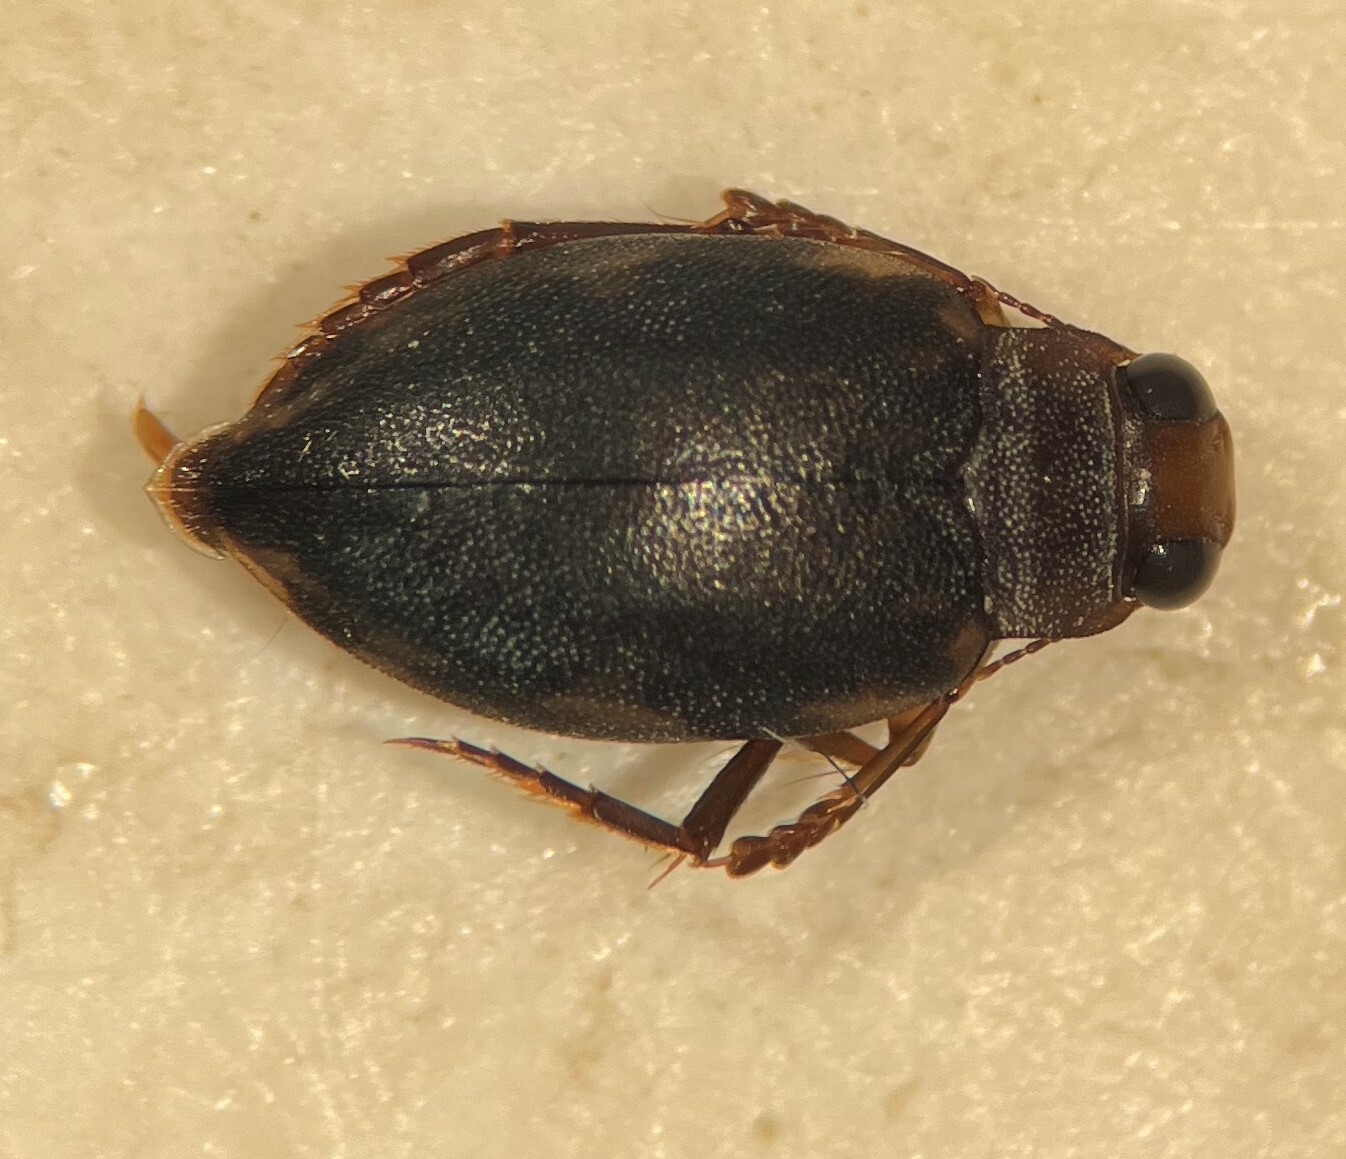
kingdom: Animalia
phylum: Arthropoda
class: Insecta
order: Coleoptera
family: Dytiscidae
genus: Vatellus
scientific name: Vatellus mexicanus
